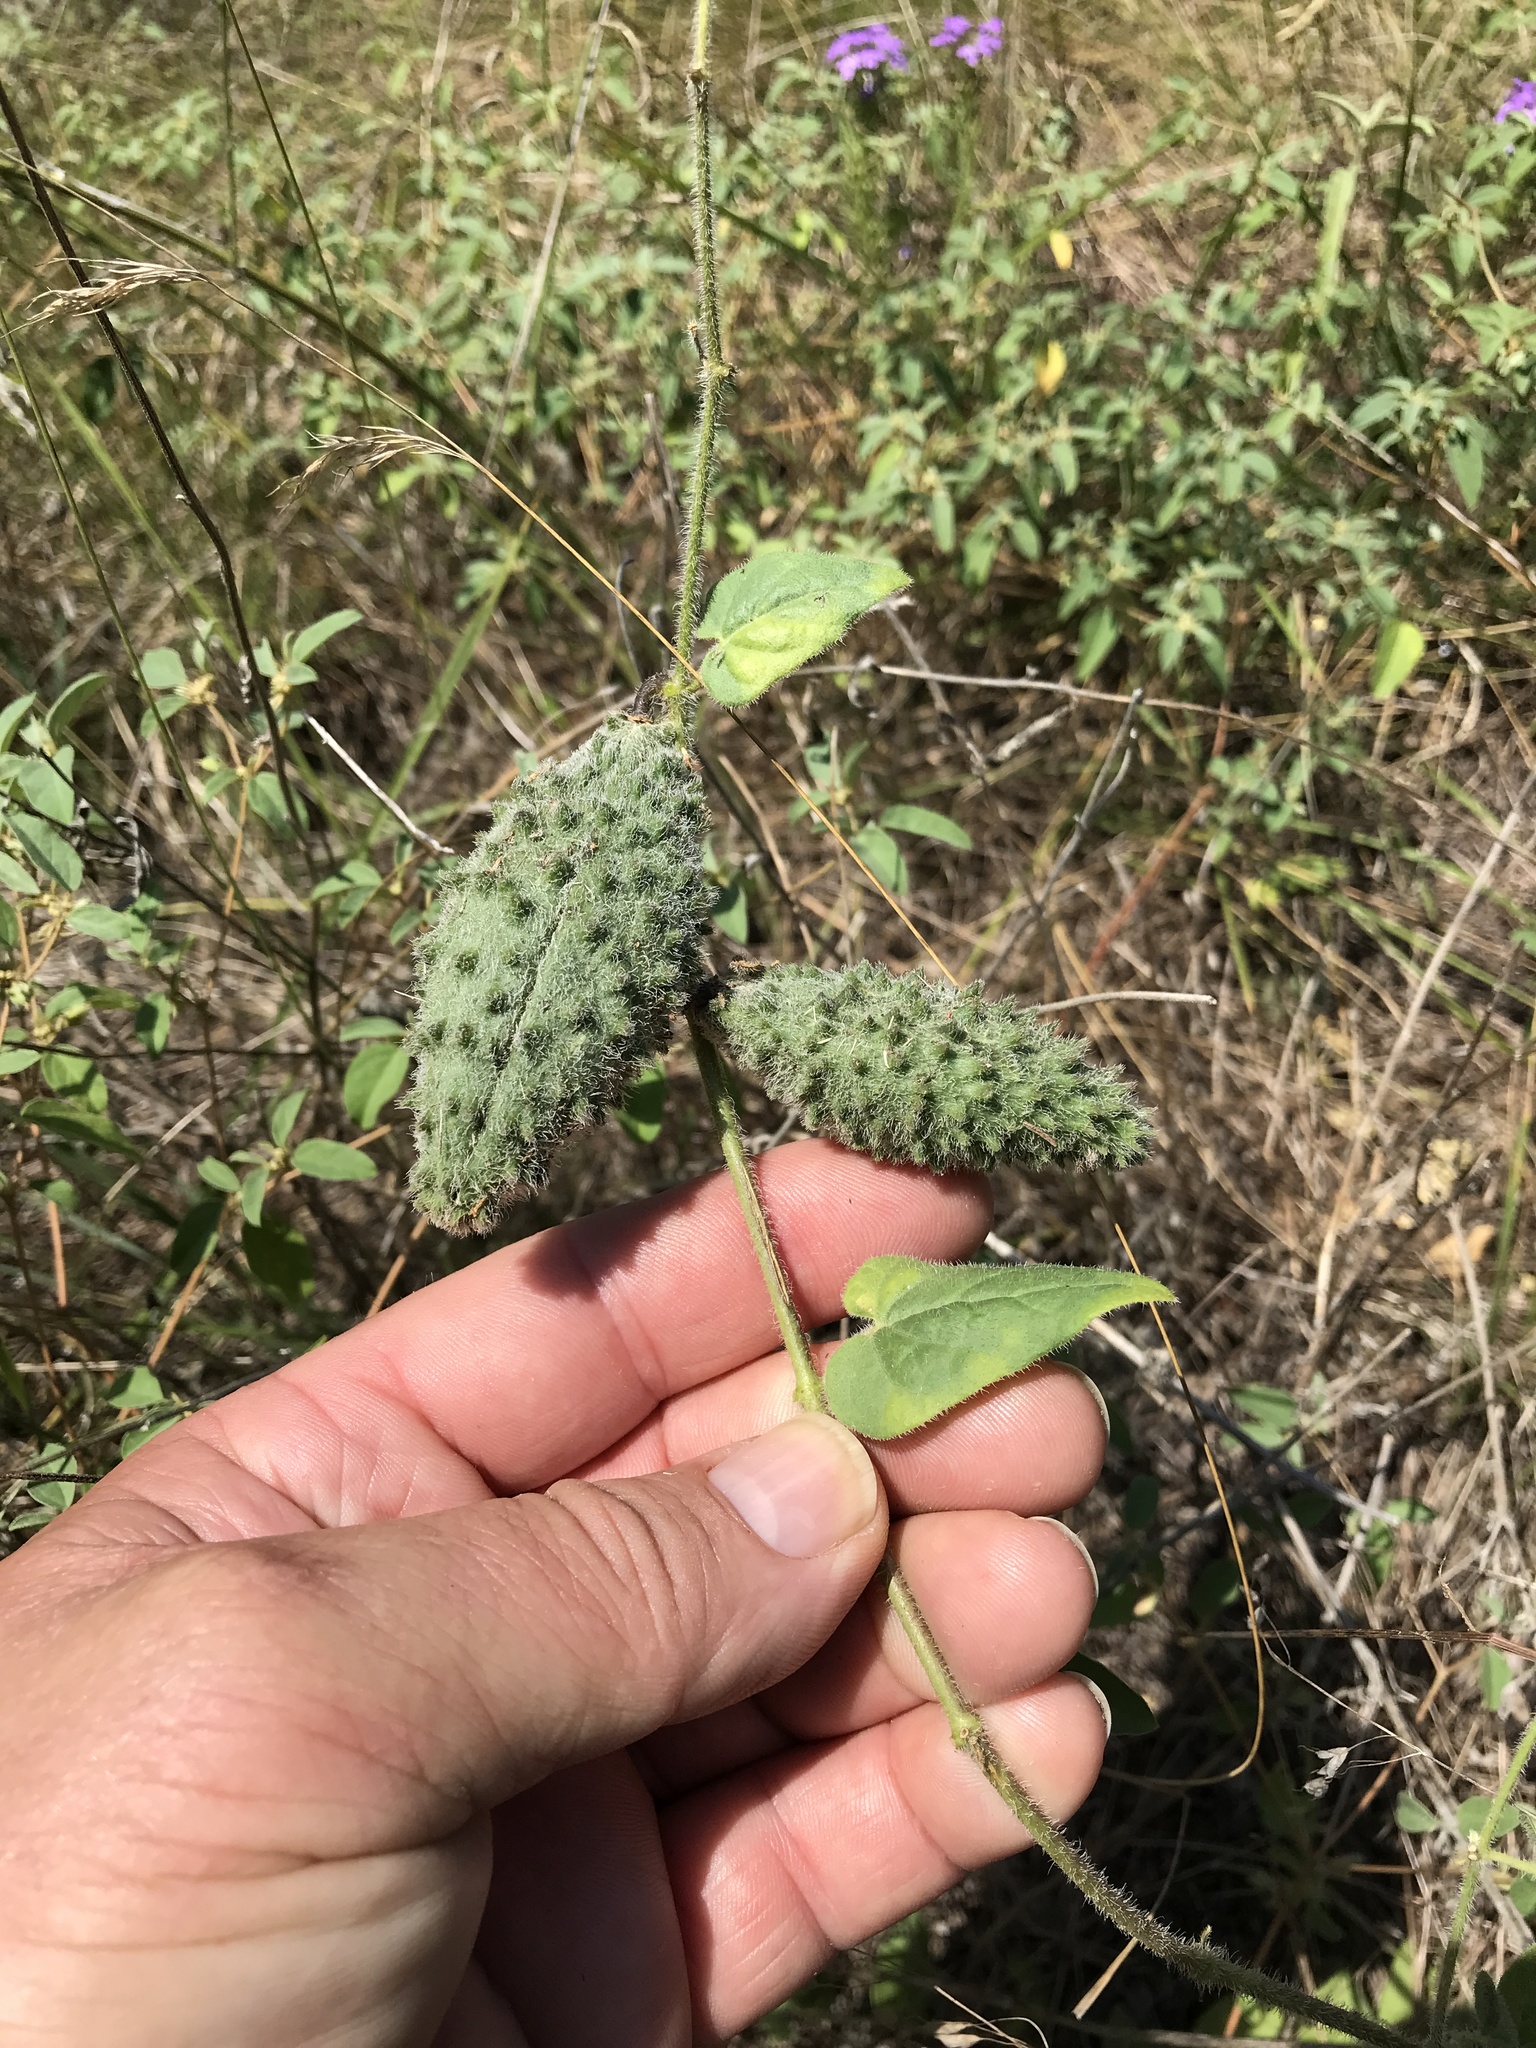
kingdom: Plantae
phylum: Tracheophyta
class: Magnoliopsida
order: Gentianales
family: Apocynaceae
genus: Chthamalia
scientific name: Chthamalia biflora
